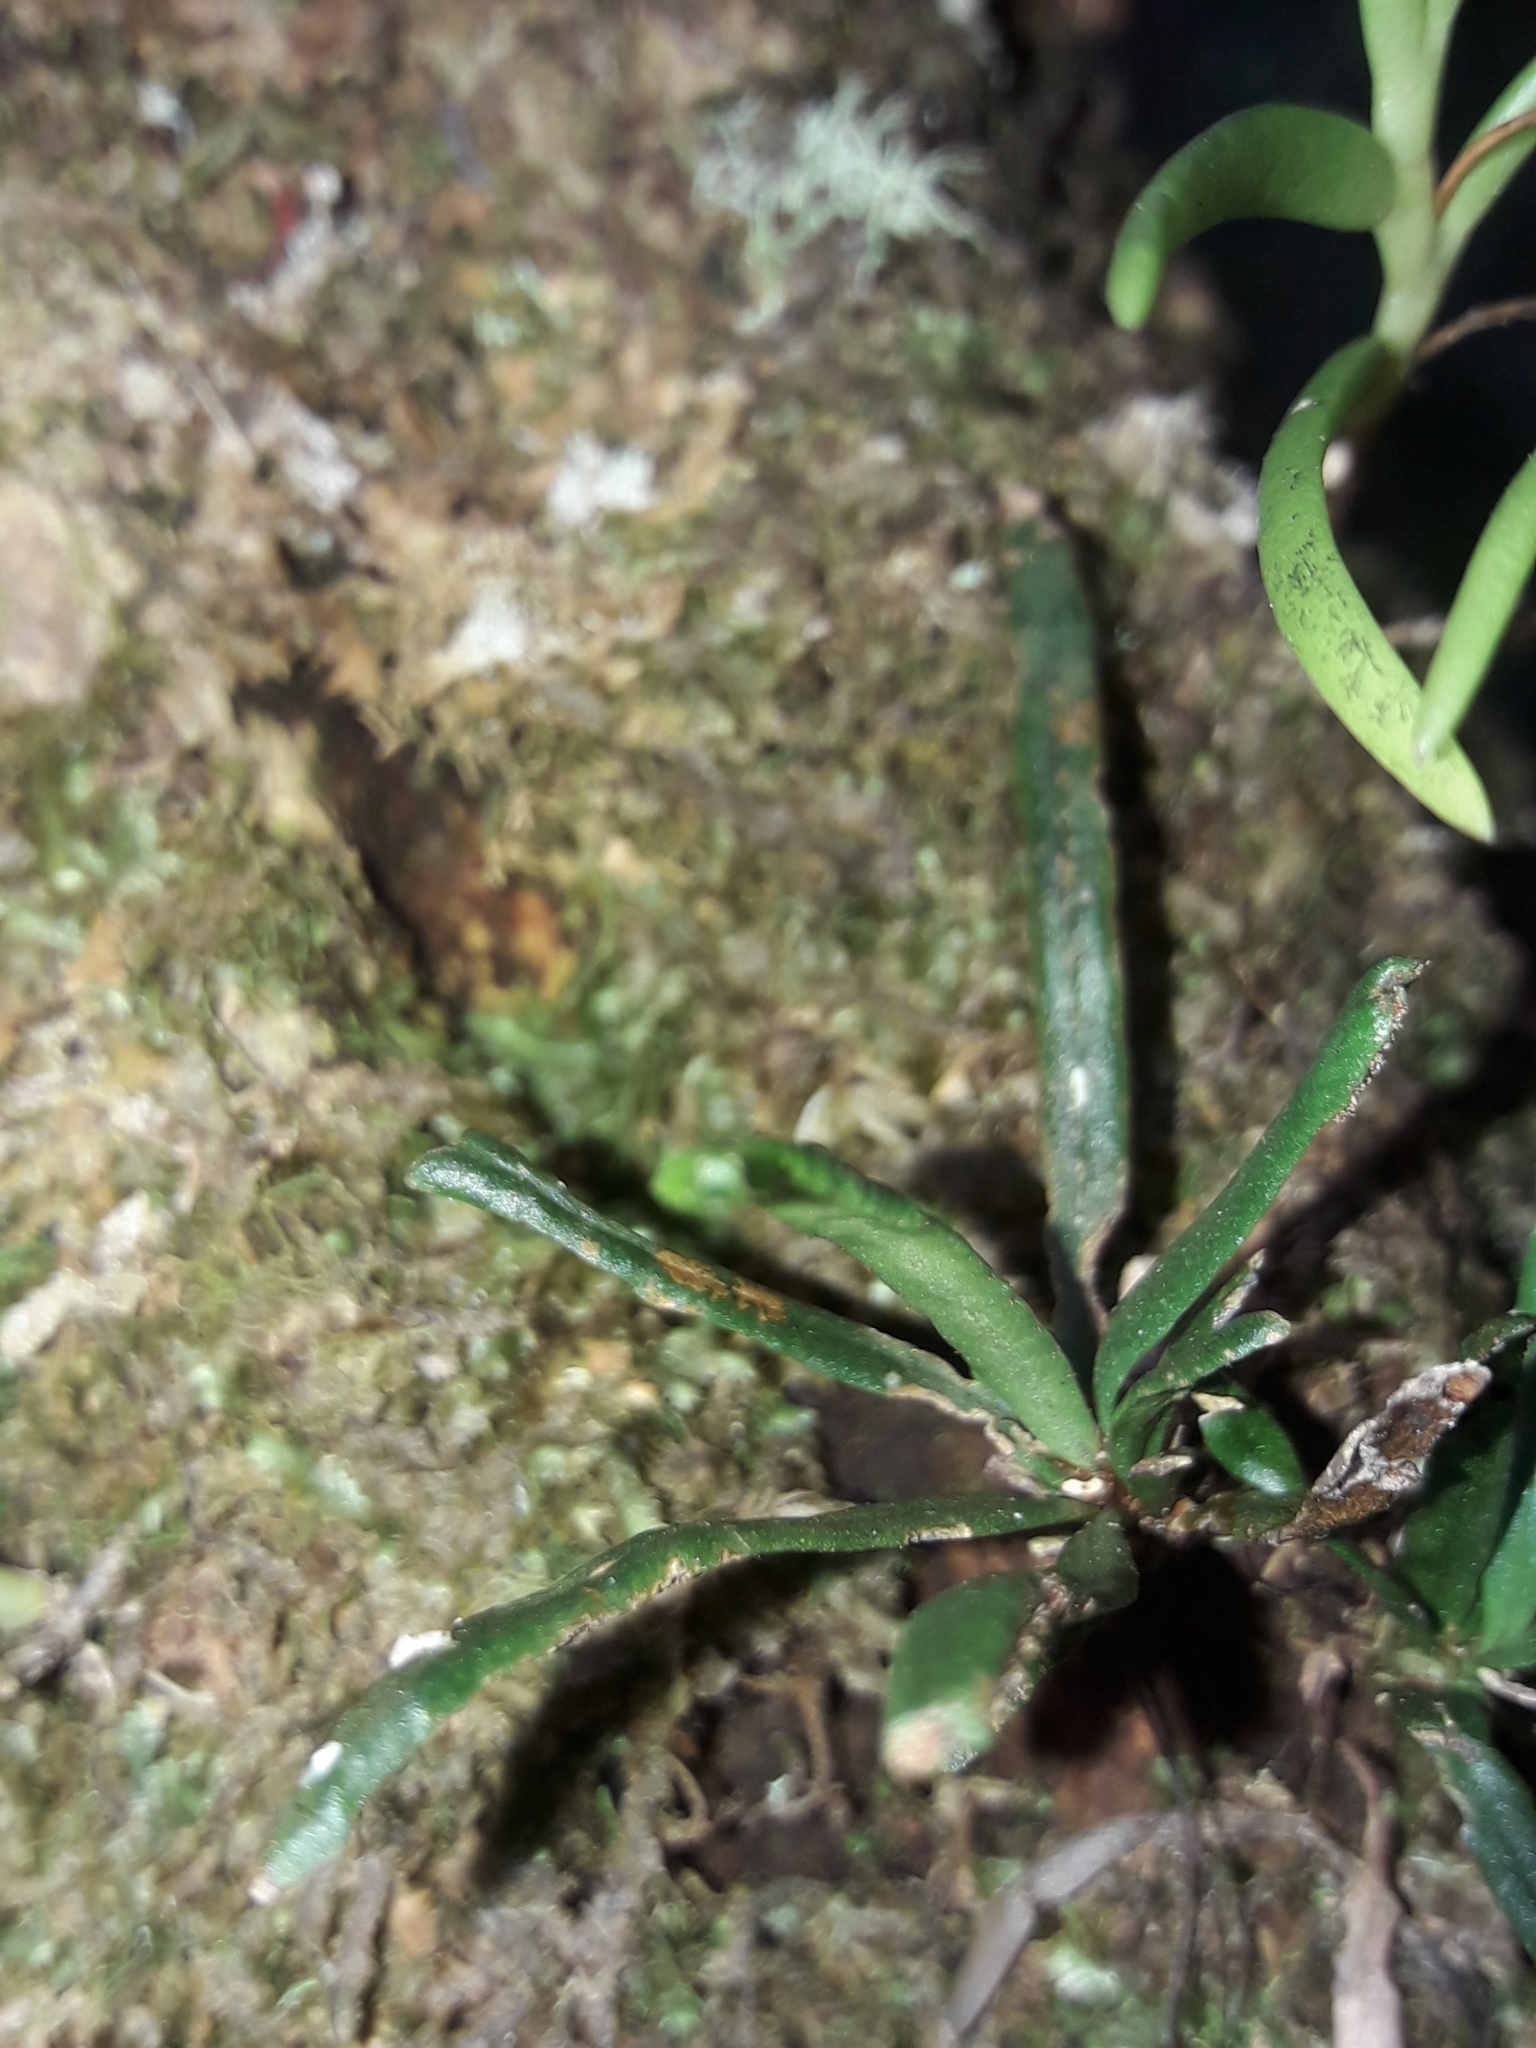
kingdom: Plantae
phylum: Tracheophyta
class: Polypodiopsida
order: Polypodiales
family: Polypodiaceae
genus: Scleroglossum
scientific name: Scleroglossum wooroonooran
